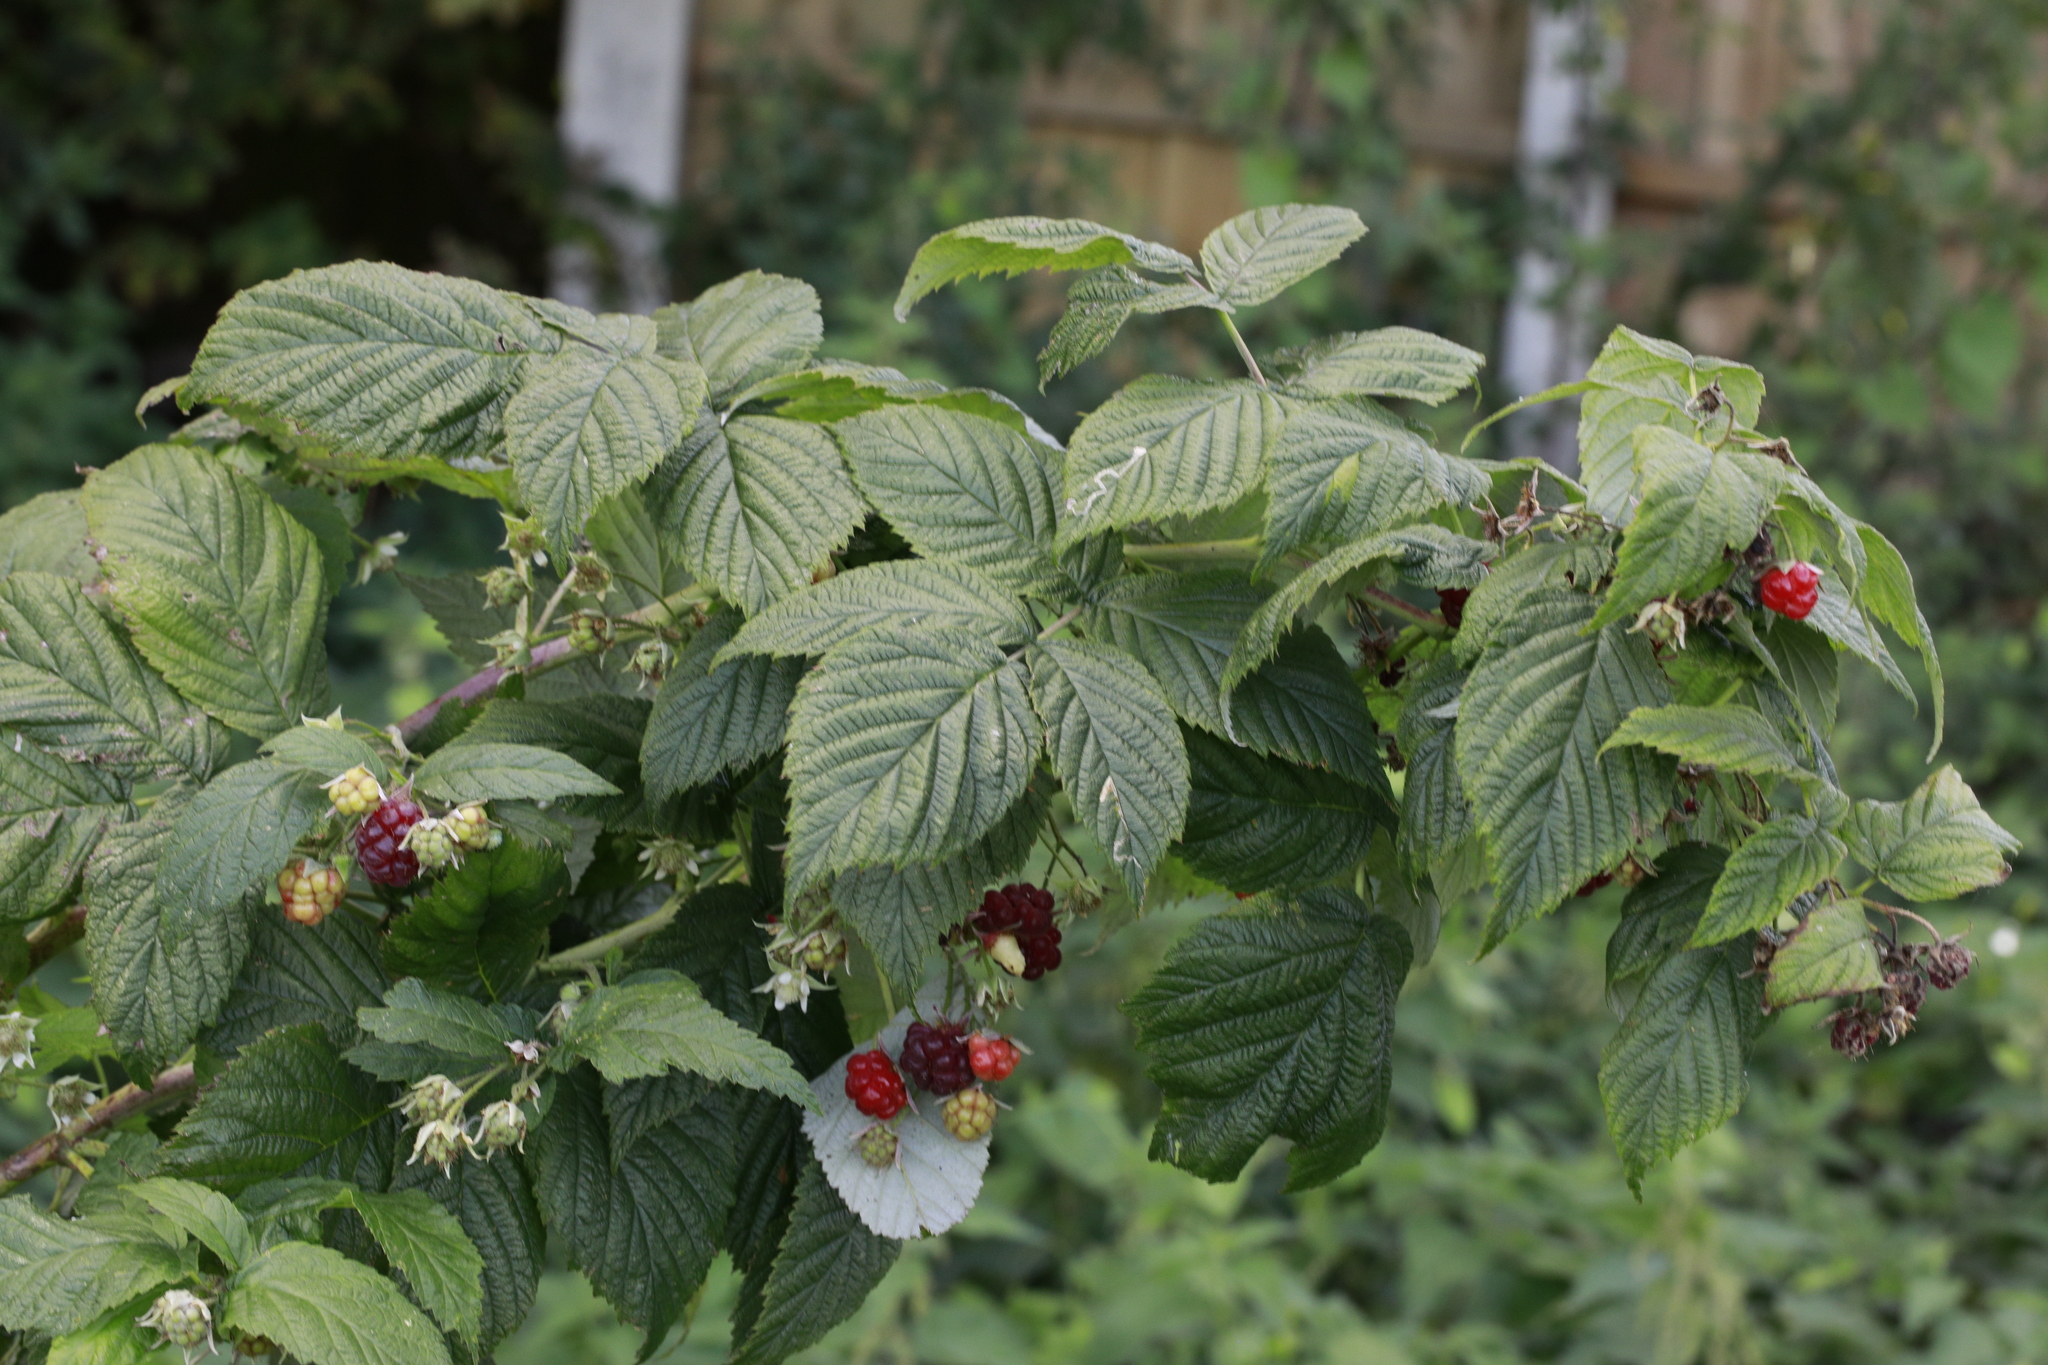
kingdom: Plantae
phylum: Tracheophyta
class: Magnoliopsida
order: Rosales
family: Rosaceae
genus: Rubus
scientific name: Rubus idaeus
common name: Raspberry
